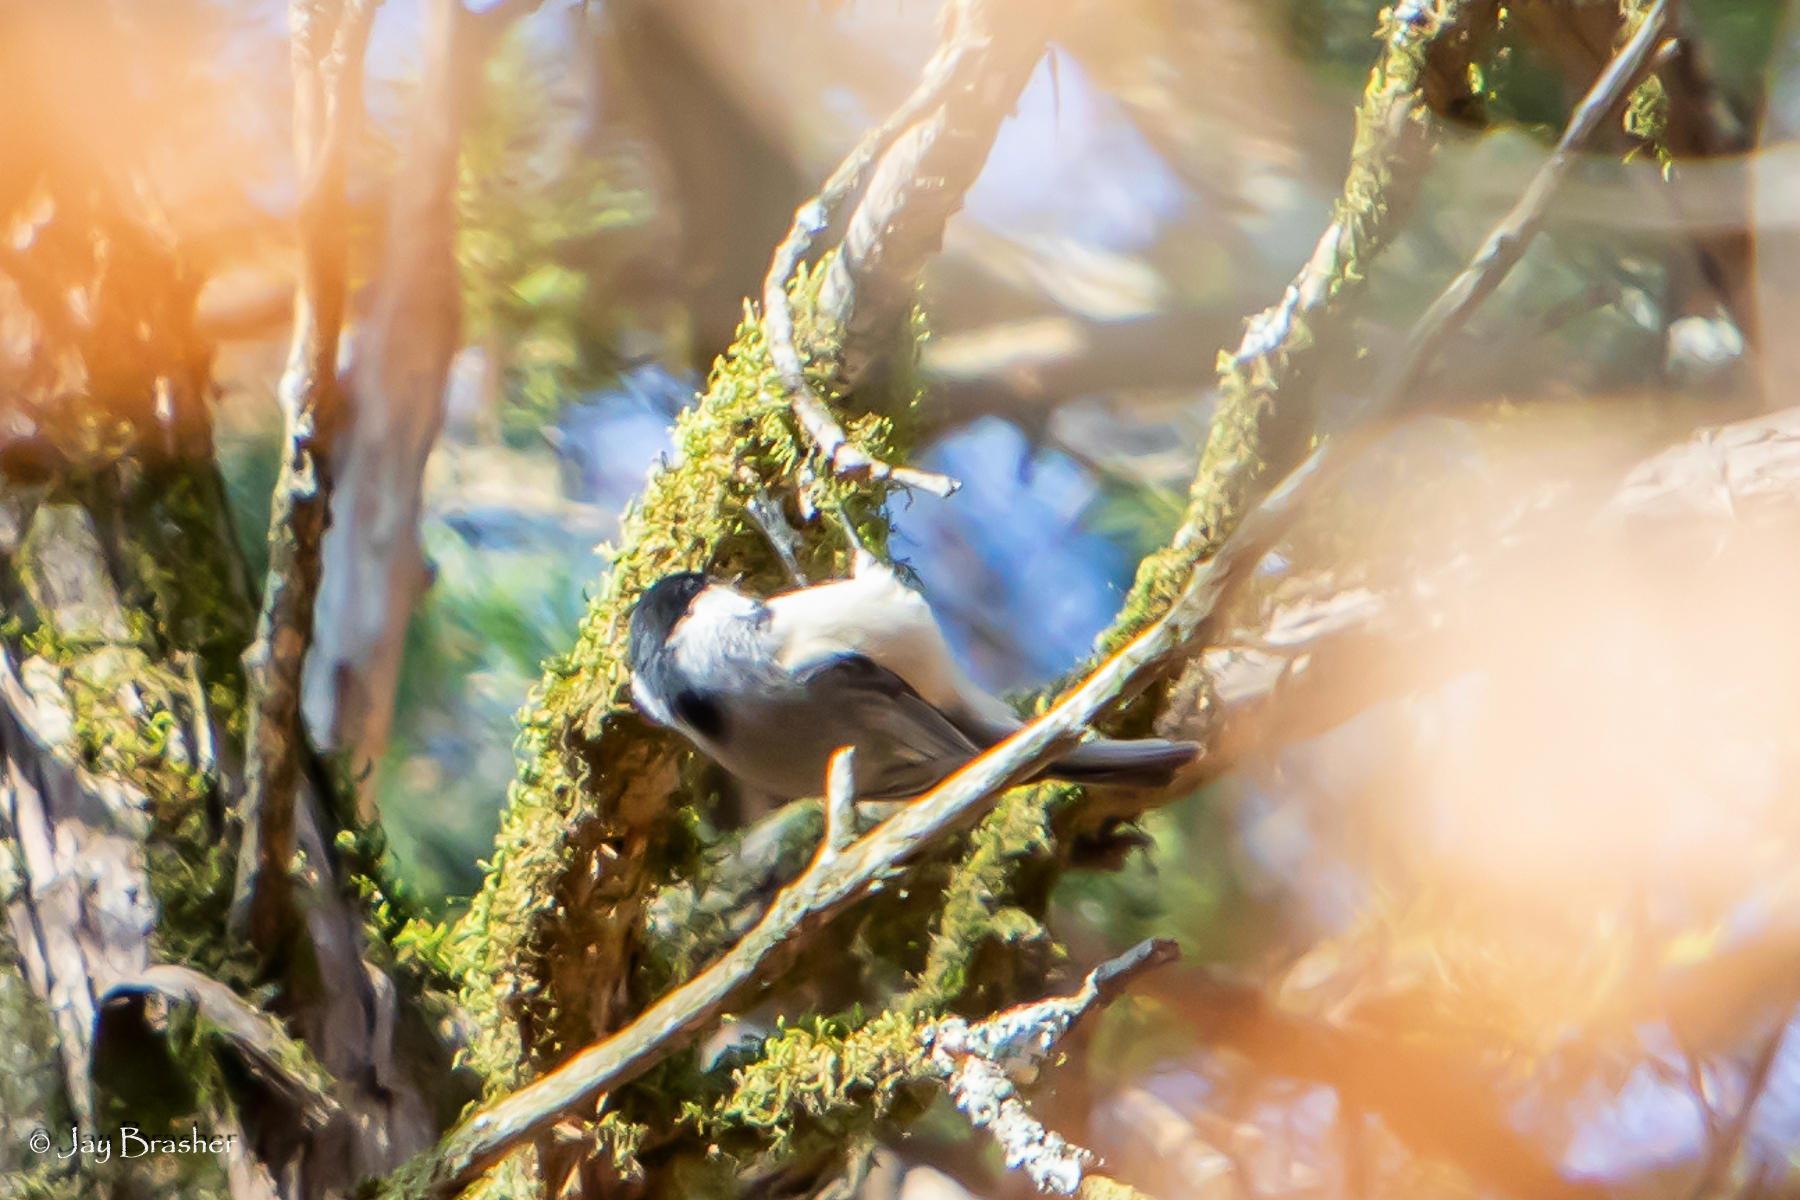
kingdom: Animalia
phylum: Chordata
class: Aves
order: Passeriformes
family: Paridae
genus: Poecile
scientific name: Poecile carolinensis
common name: Carolina chickadee
